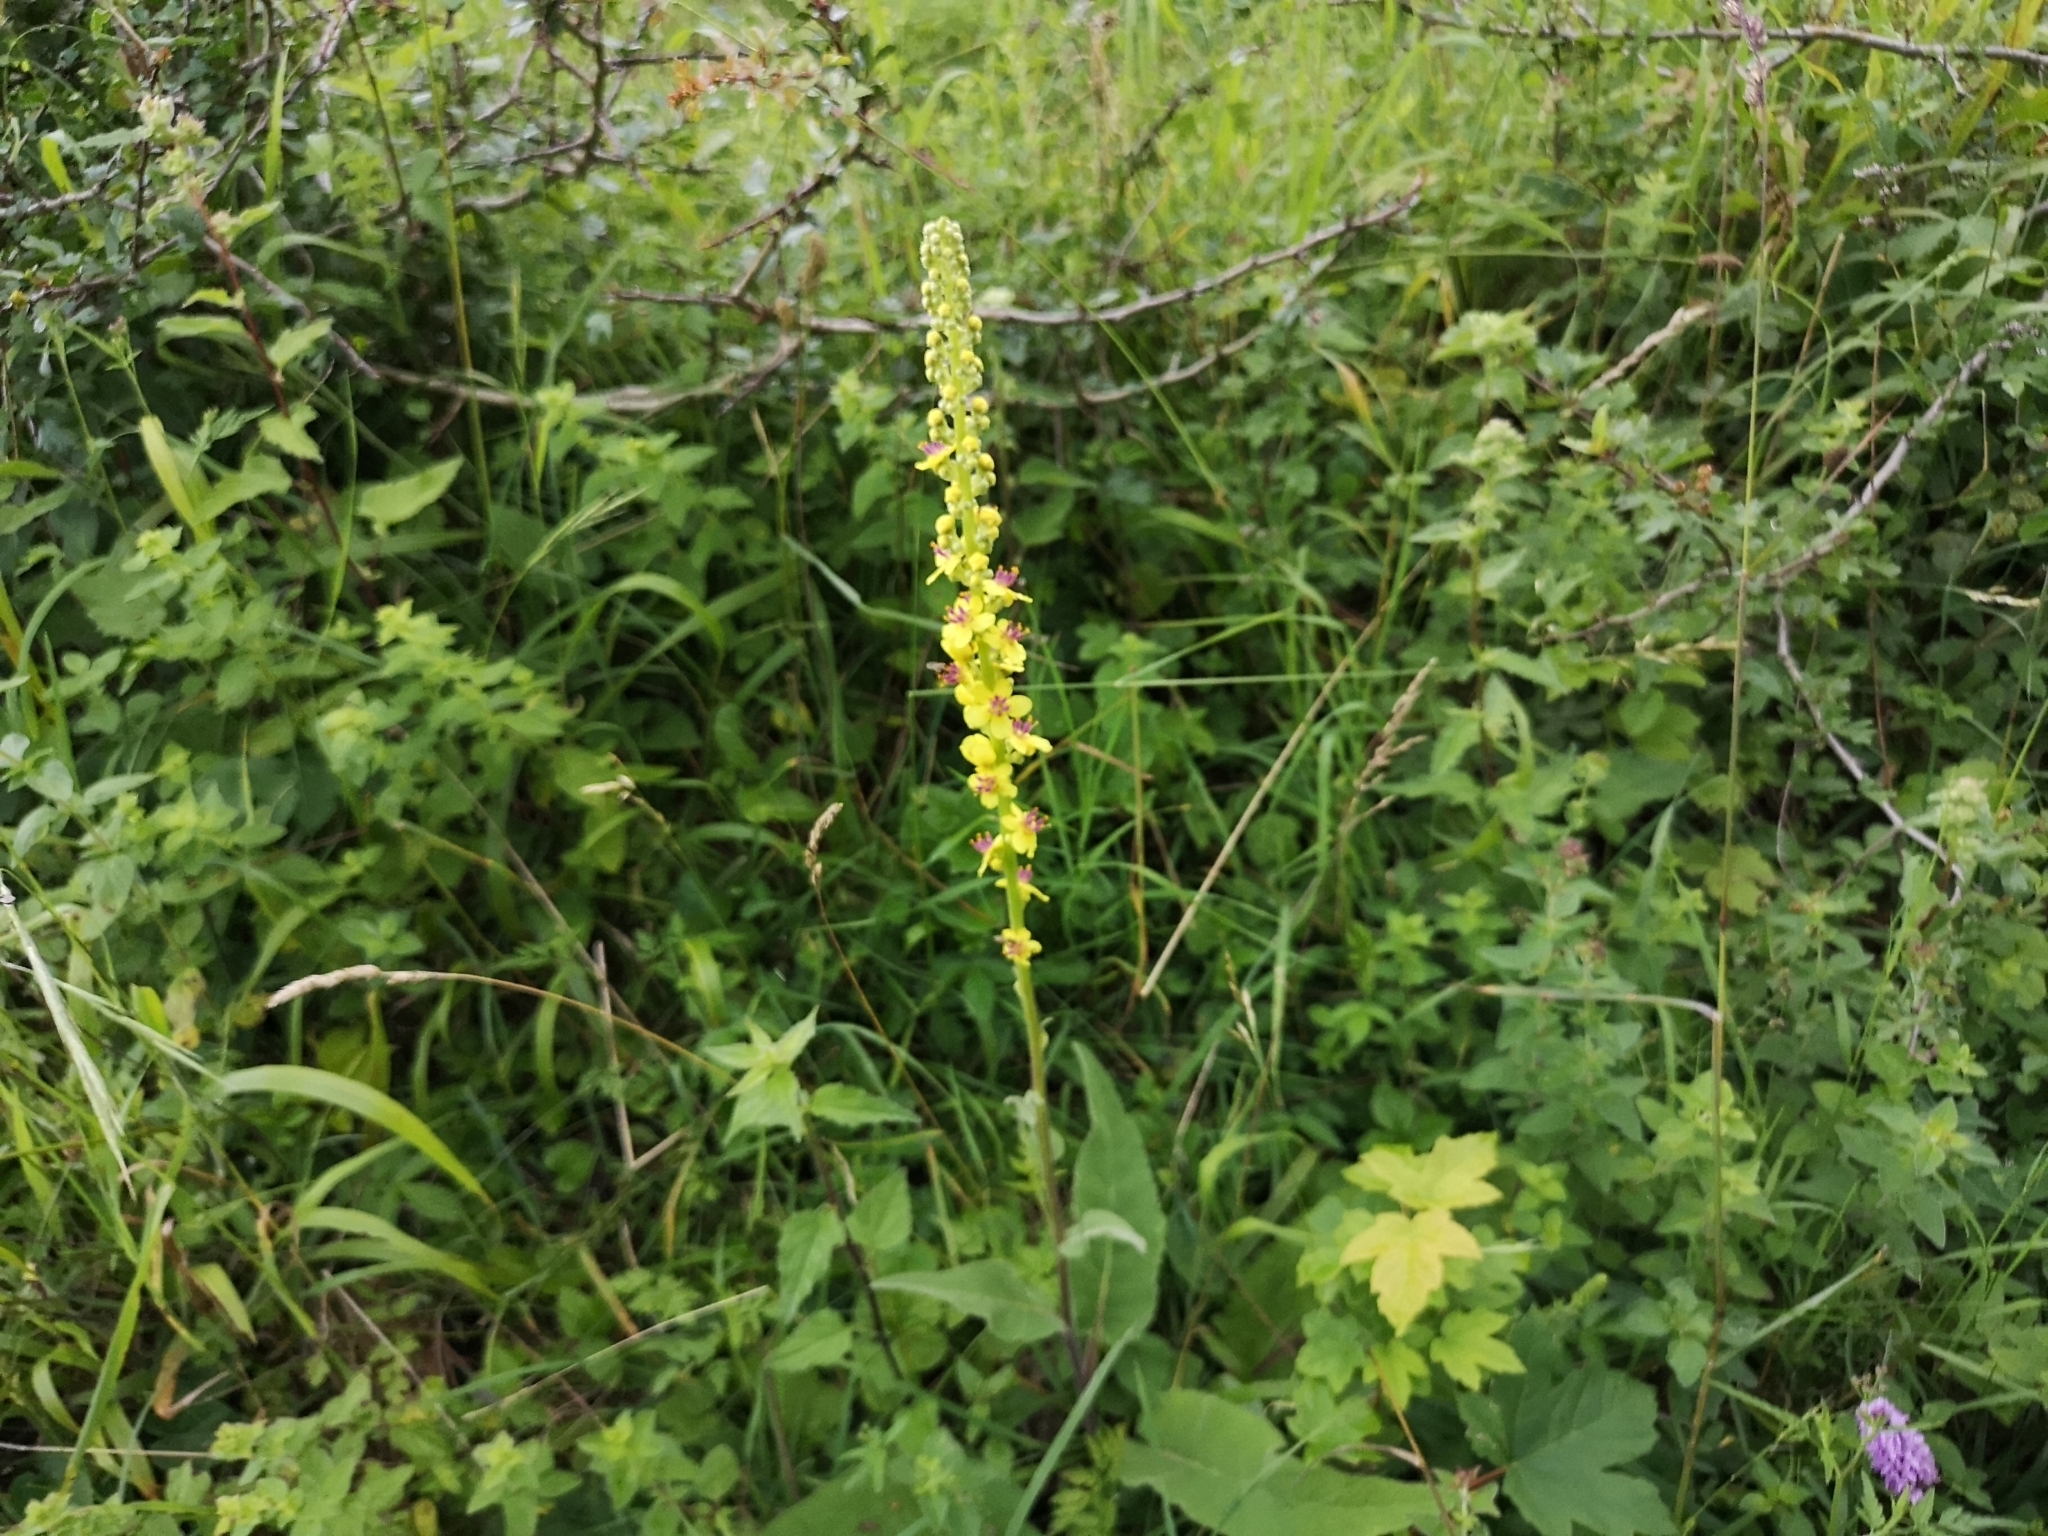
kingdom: Plantae
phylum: Tracheophyta
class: Magnoliopsida
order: Lamiales
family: Scrophulariaceae
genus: Verbascum
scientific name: Verbascum nigrum
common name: Dark mullein
